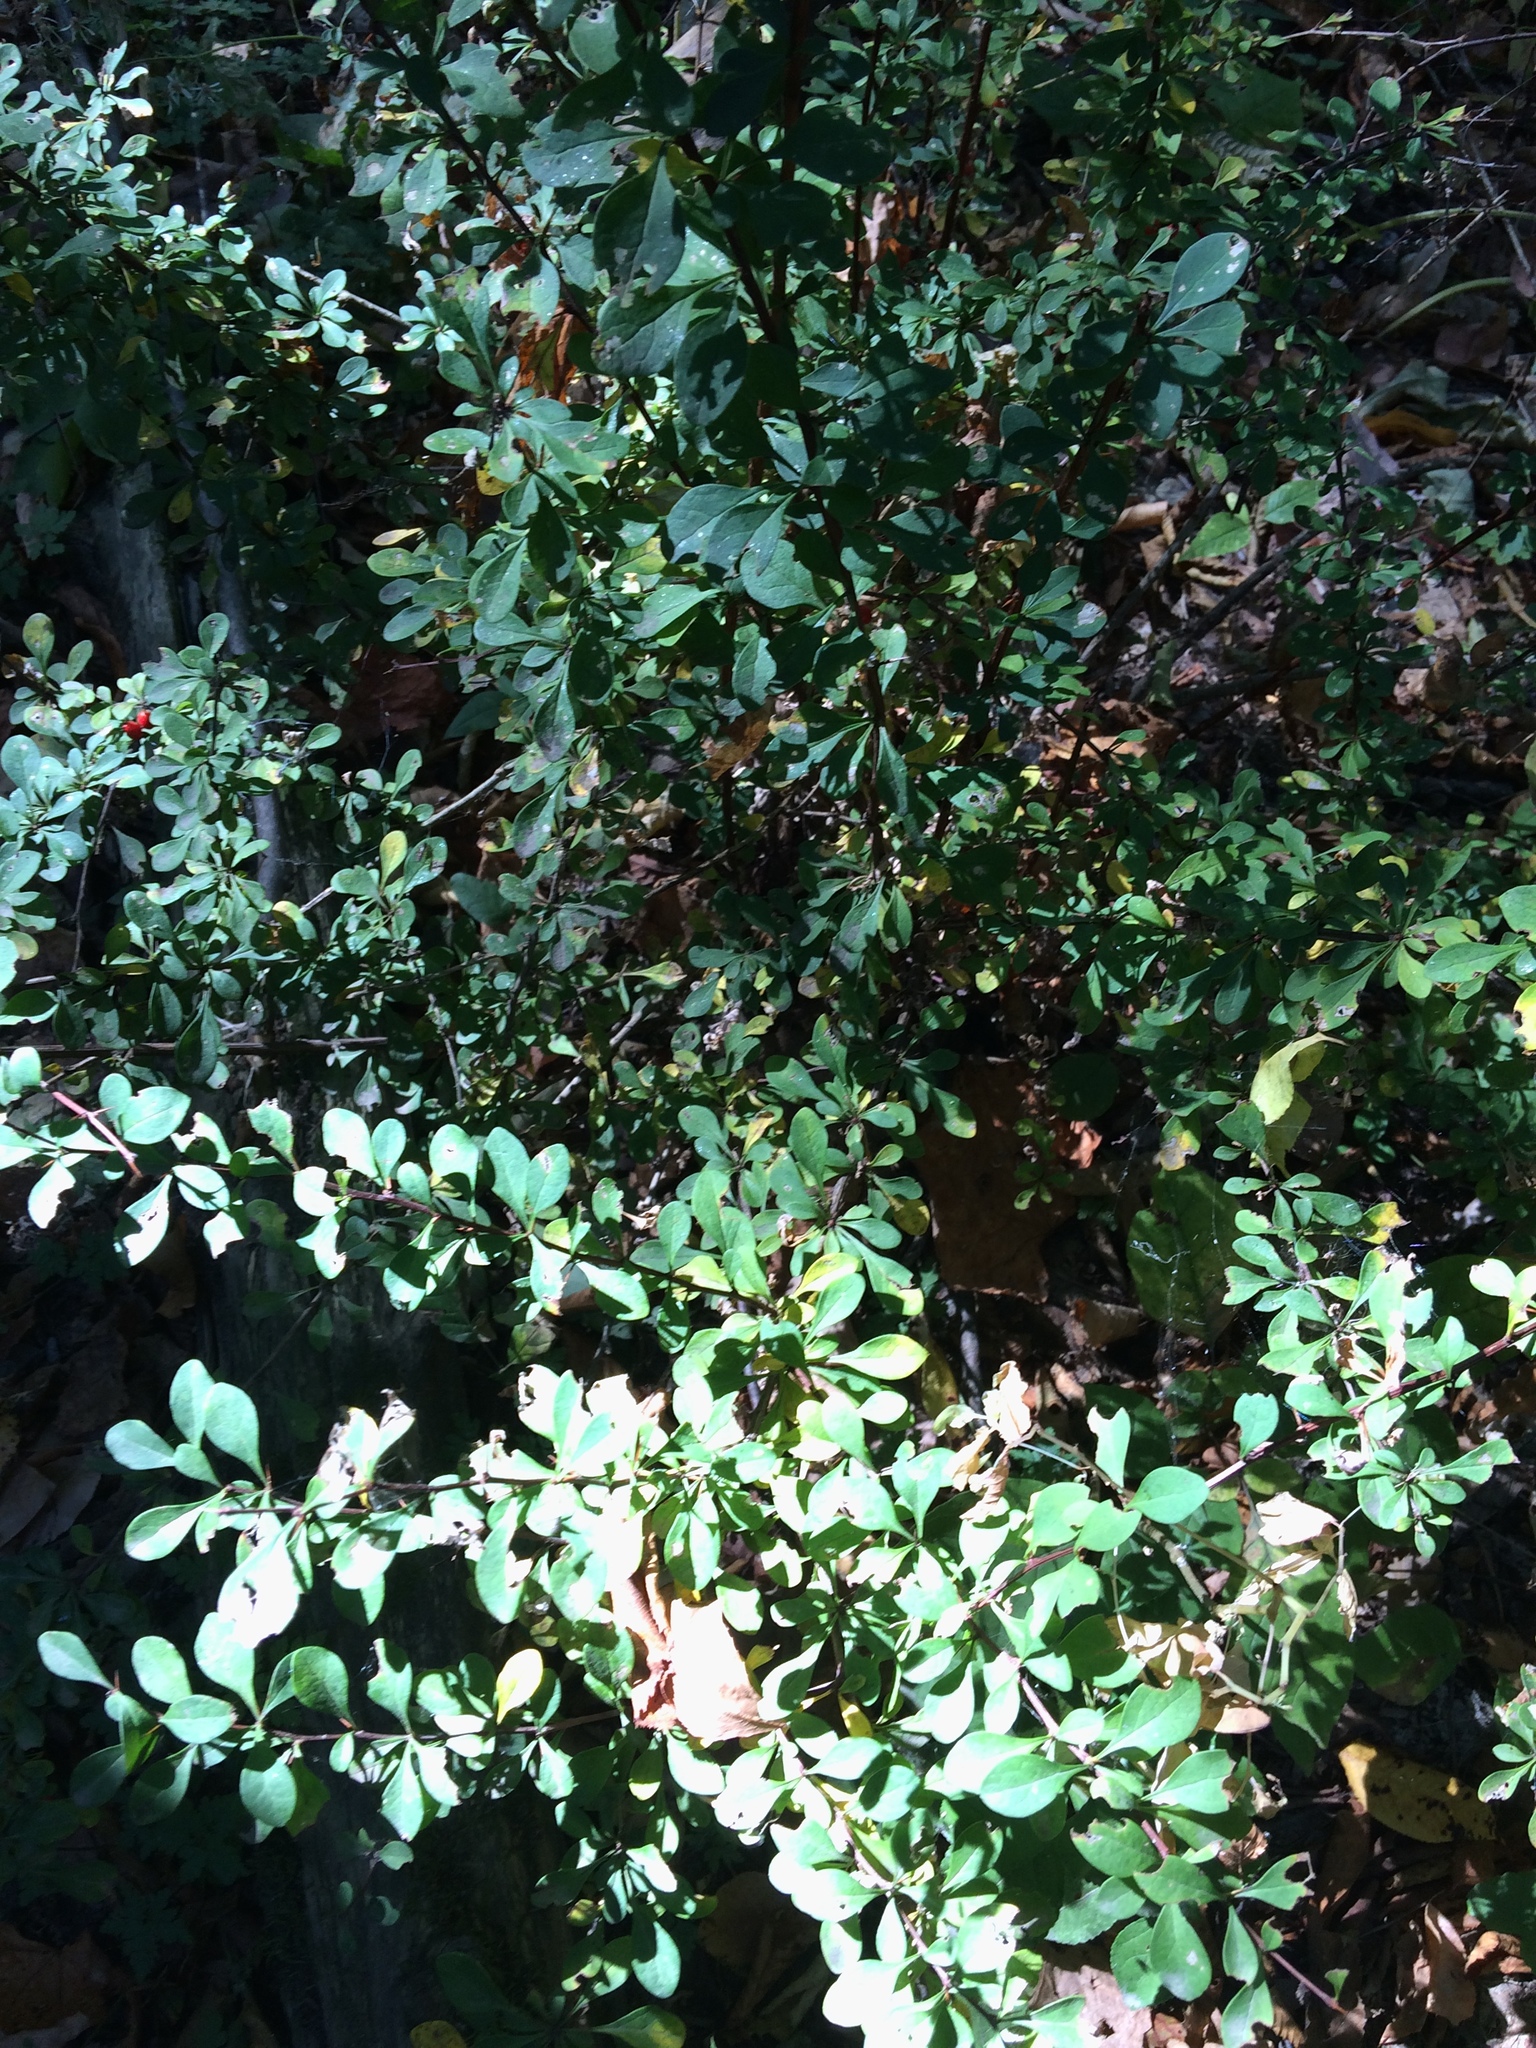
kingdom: Plantae
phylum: Tracheophyta
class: Magnoliopsida
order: Ranunculales
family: Berberidaceae
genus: Berberis
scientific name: Berberis thunbergii
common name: Japanese barberry
